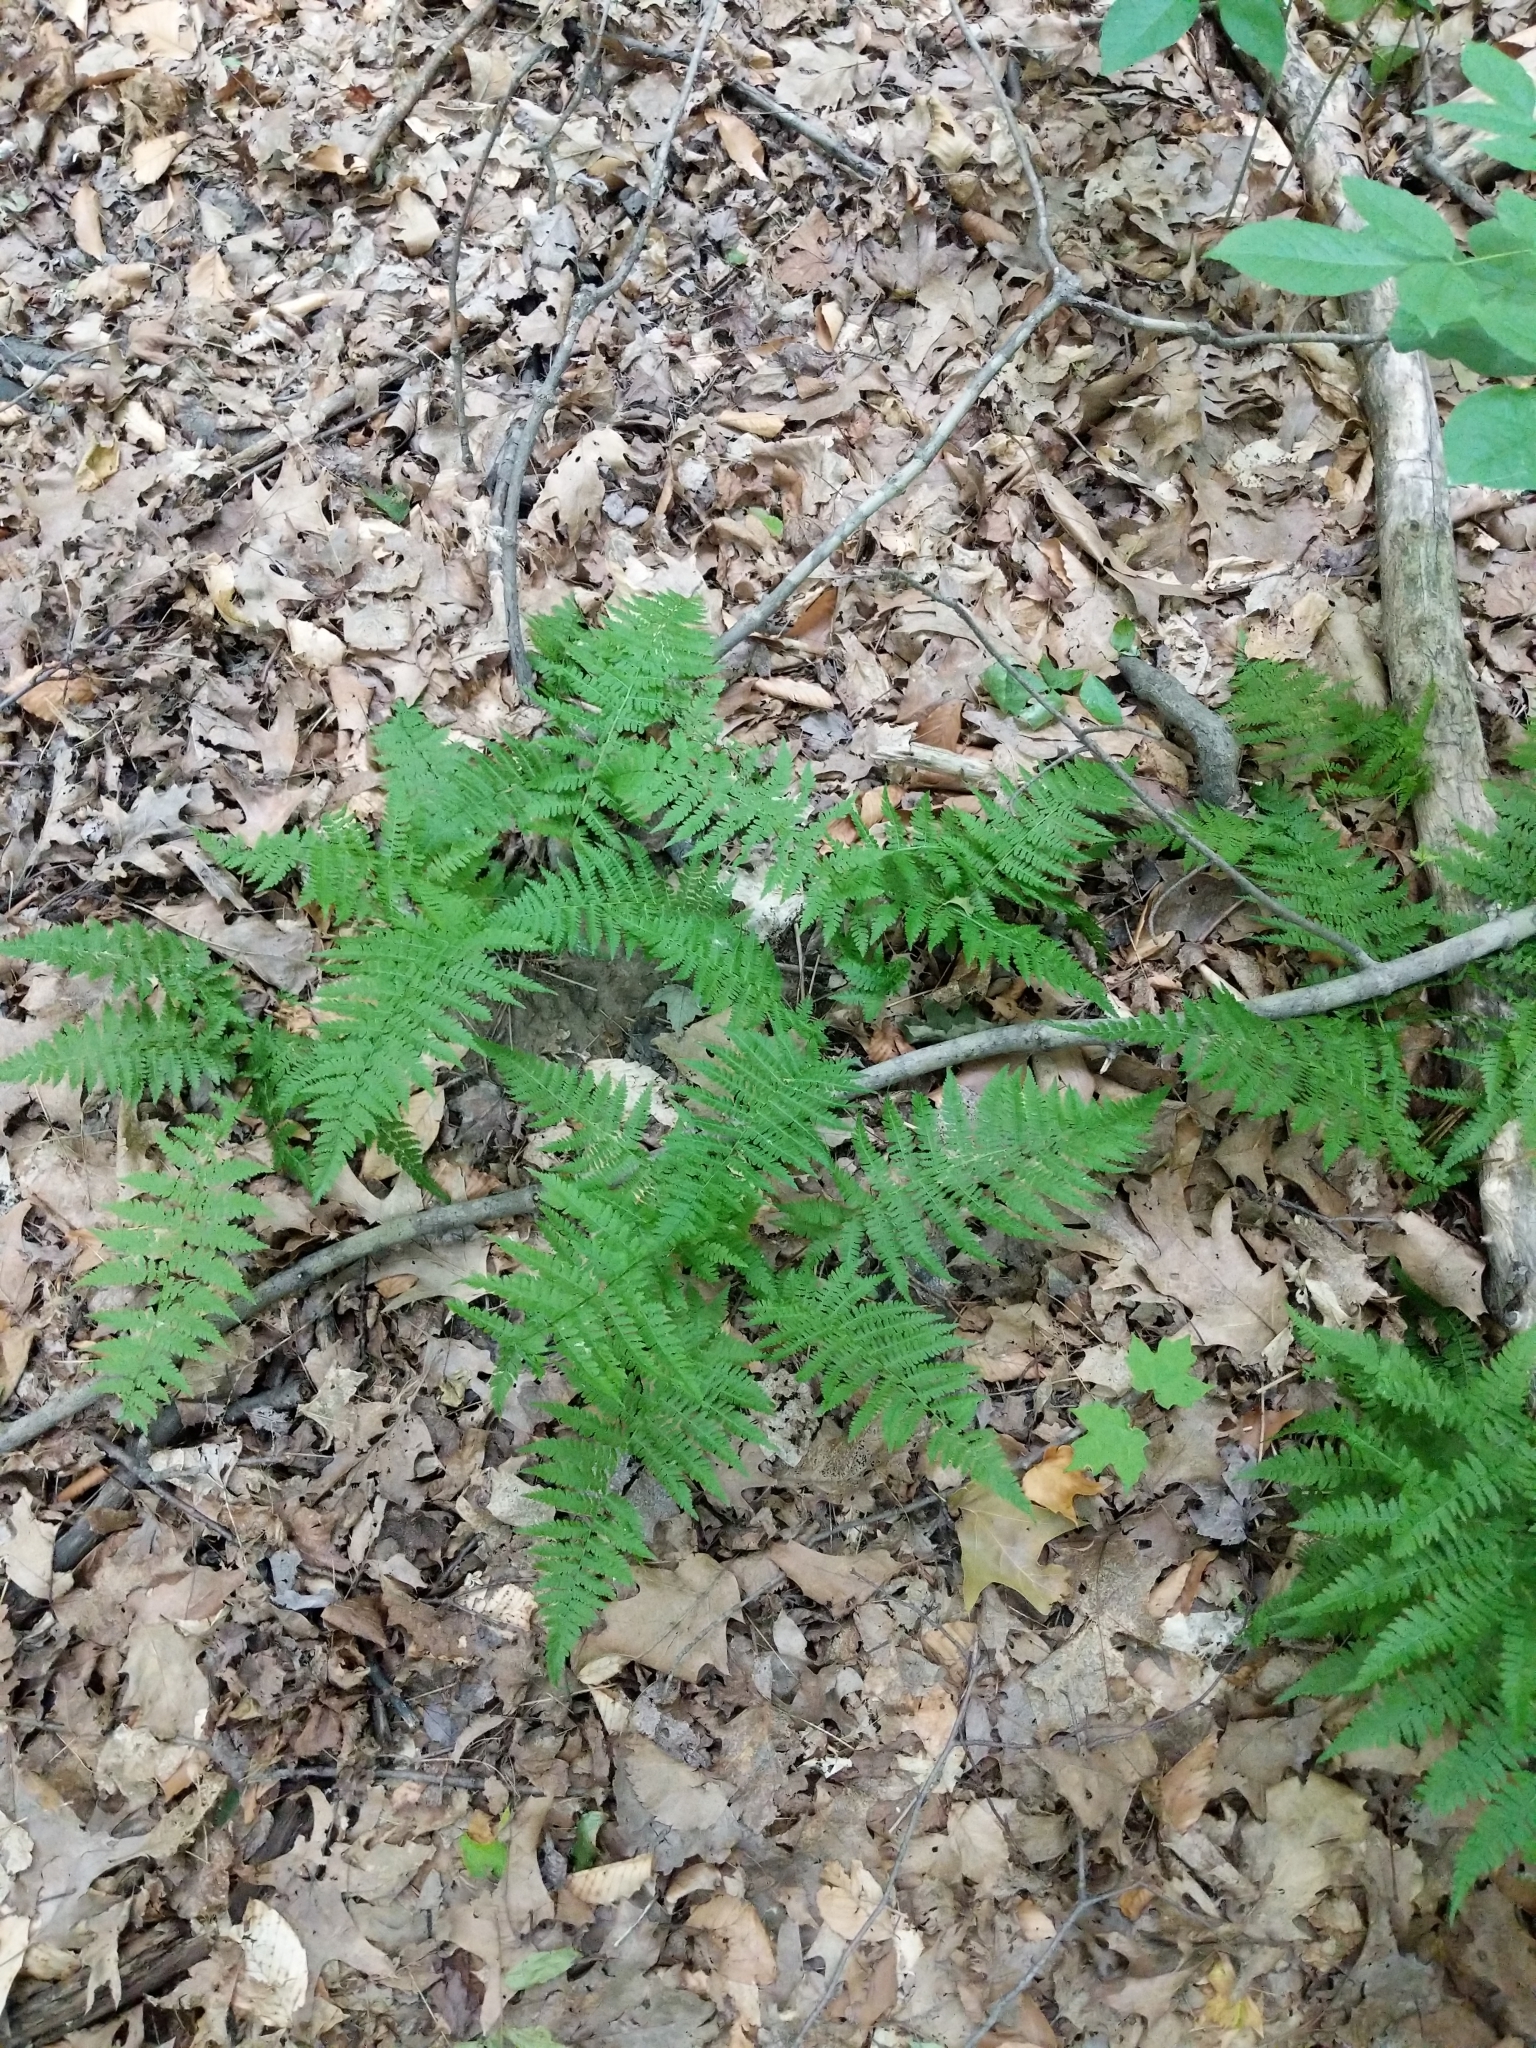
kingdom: Plantae
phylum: Tracheophyta
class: Polypodiopsida
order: Polypodiales
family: Thelypteridaceae
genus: Amauropelta
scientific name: Amauropelta noveboracensis
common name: New york fern
